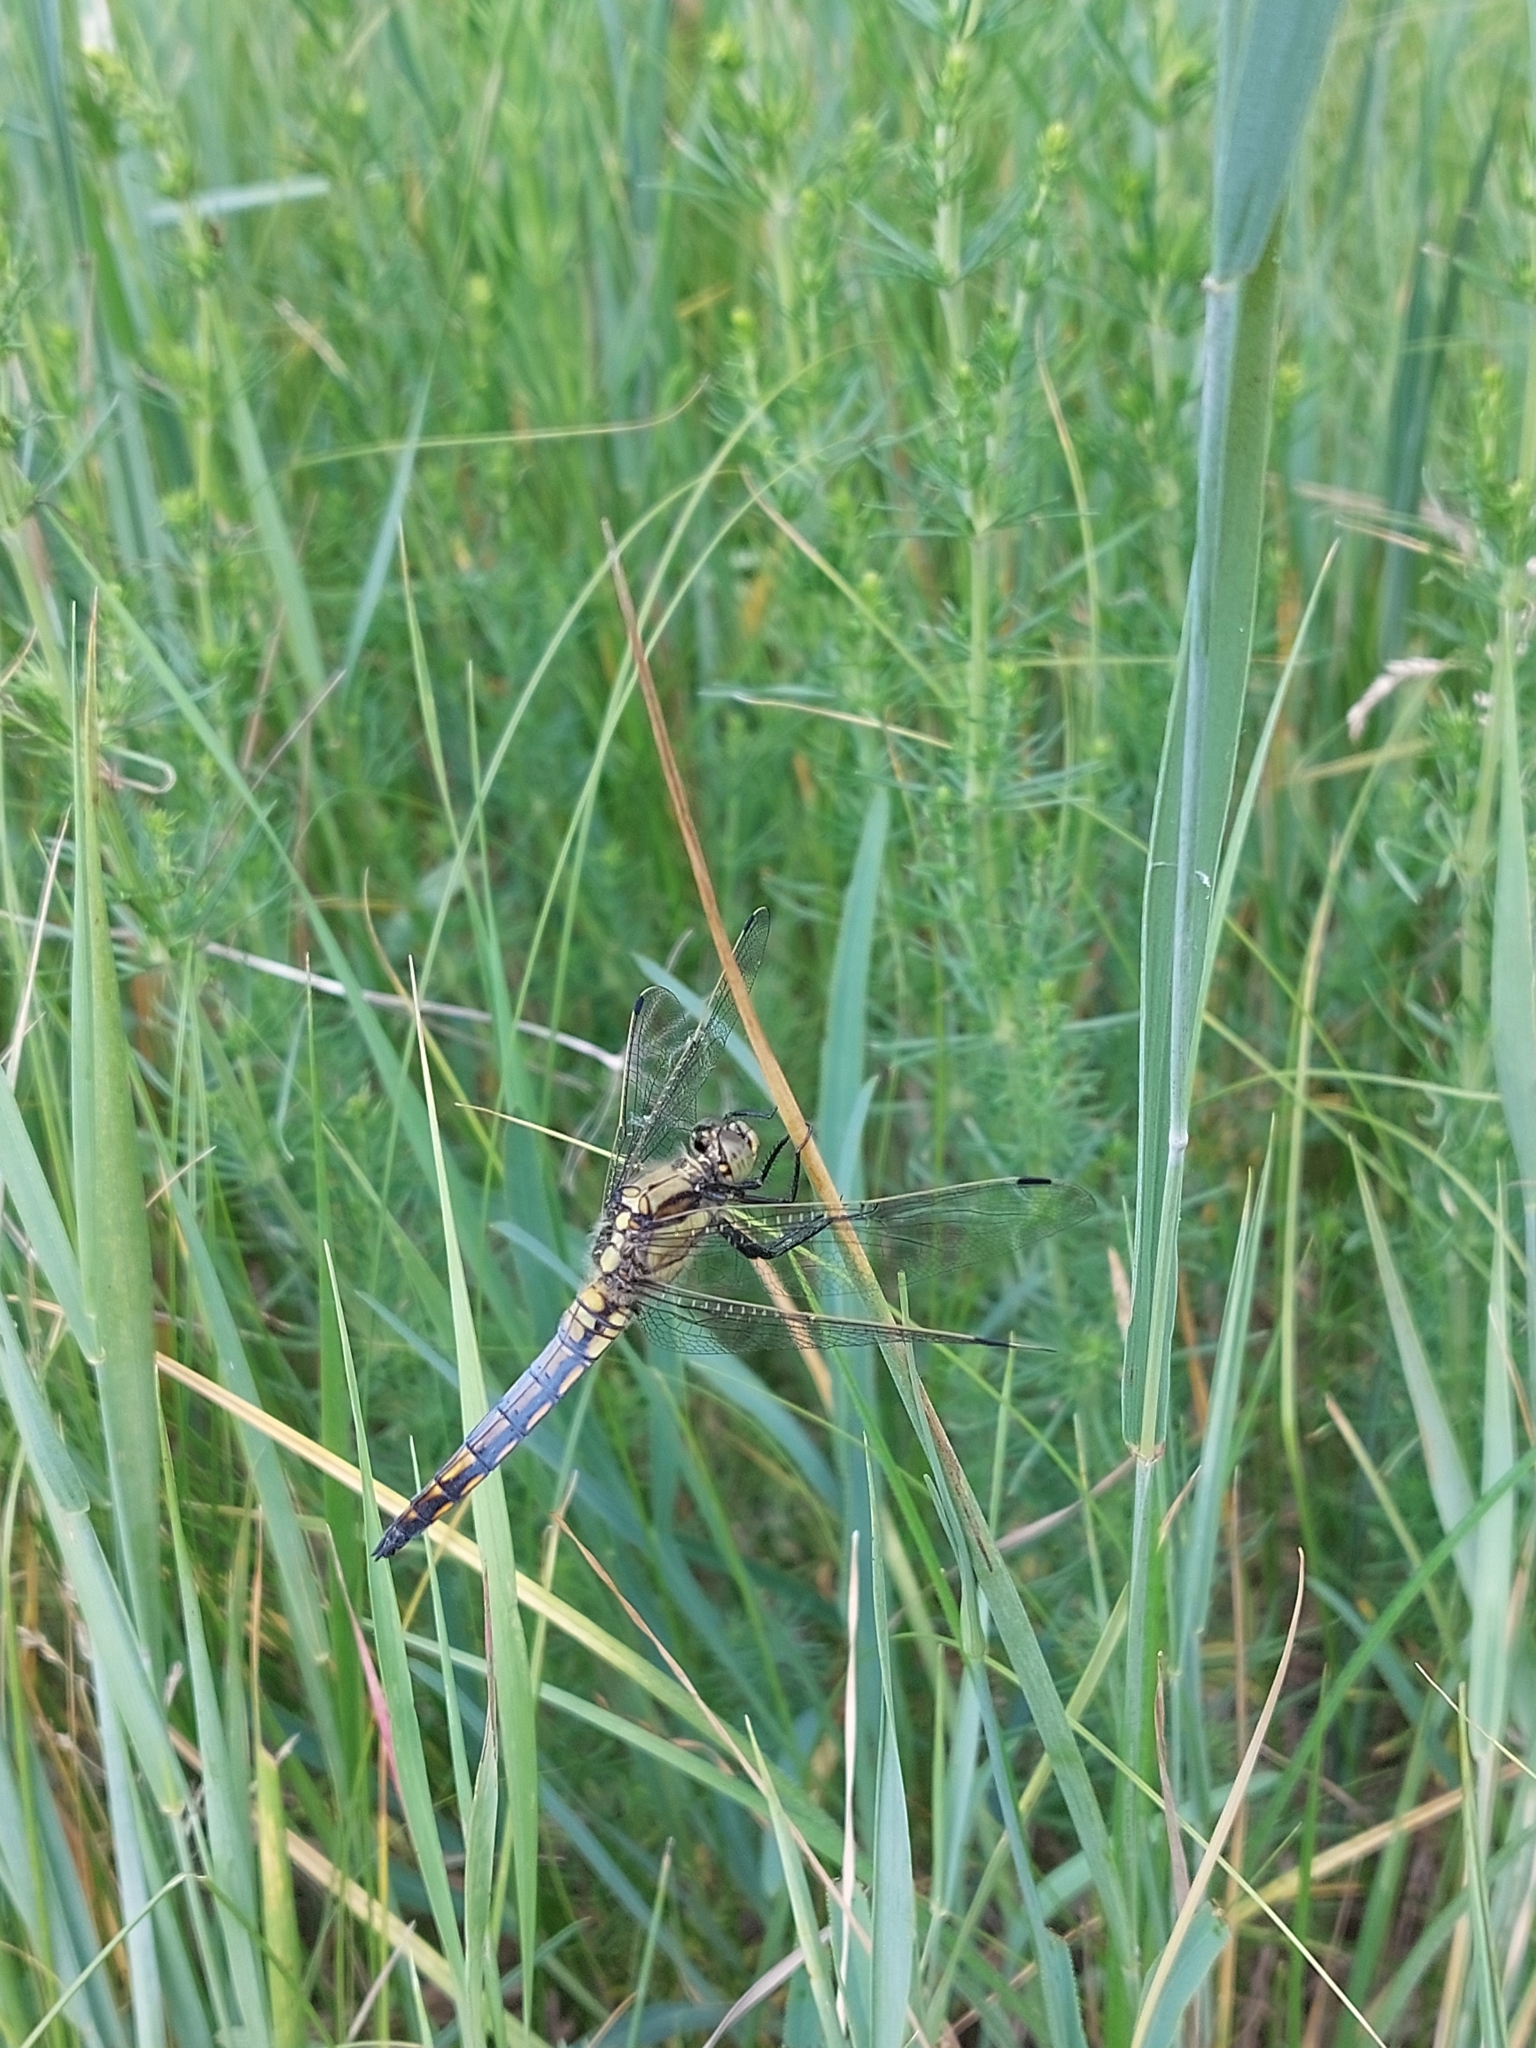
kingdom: Animalia
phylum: Arthropoda
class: Insecta
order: Odonata
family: Libellulidae
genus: Orthetrum
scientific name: Orthetrum cancellatum
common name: Black-tailed skimmer
